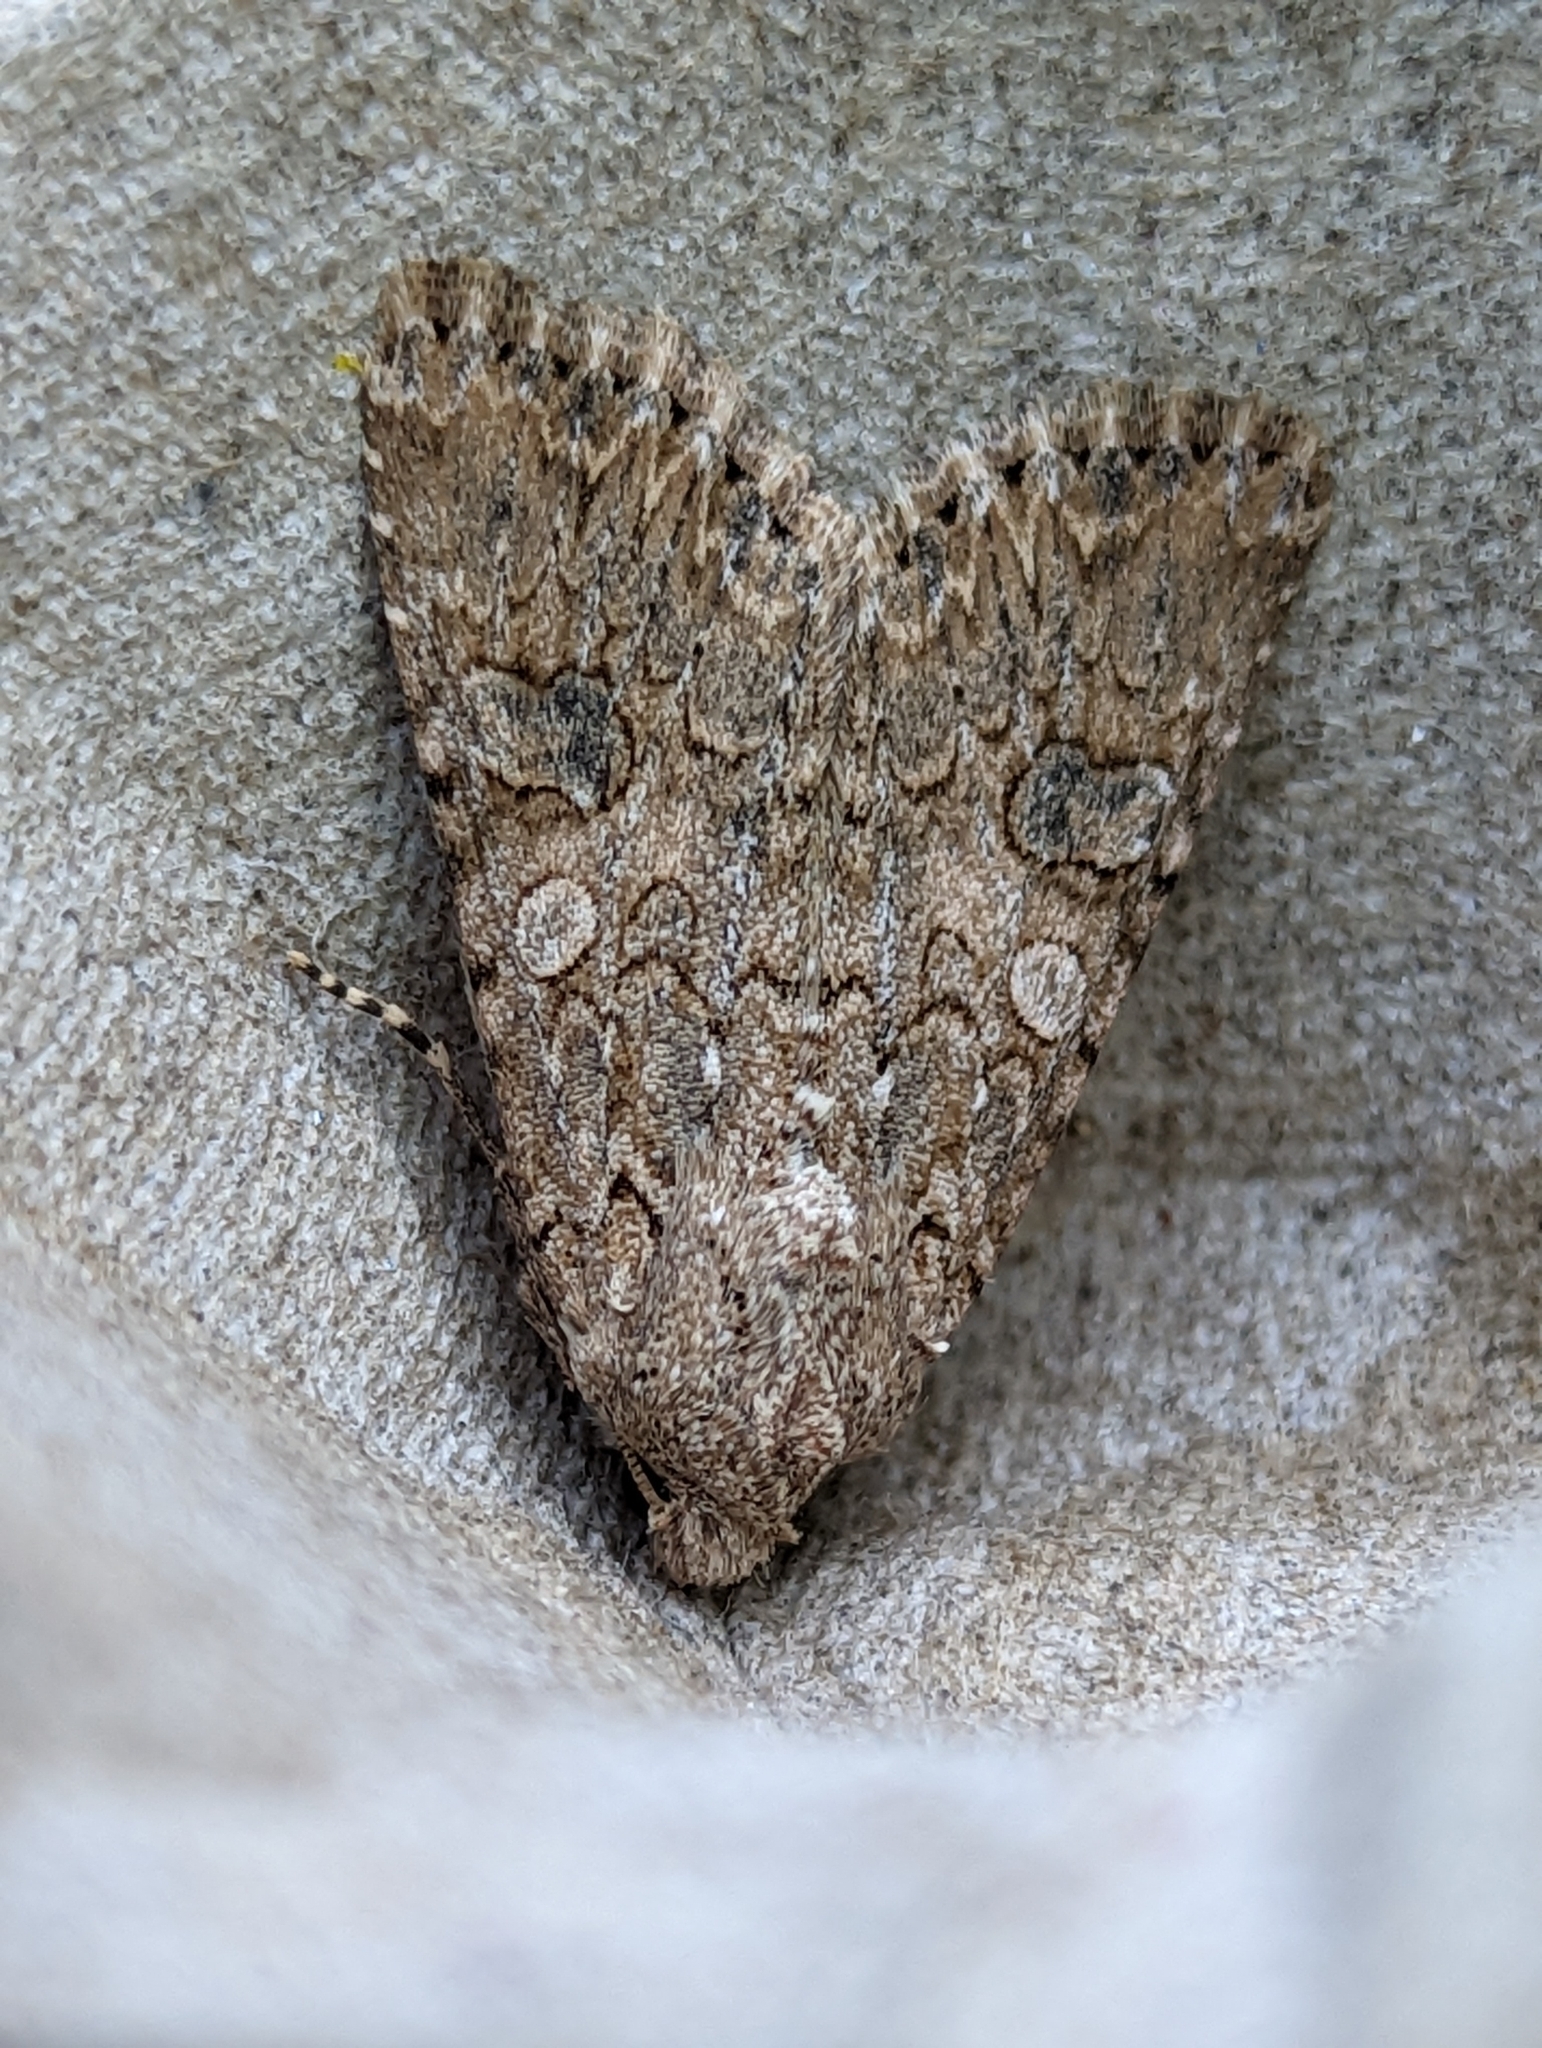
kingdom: Animalia
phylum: Arthropoda
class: Insecta
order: Lepidoptera
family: Noctuidae
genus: Anarta
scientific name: Anarta trifolii
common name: Clover cutworm moth
